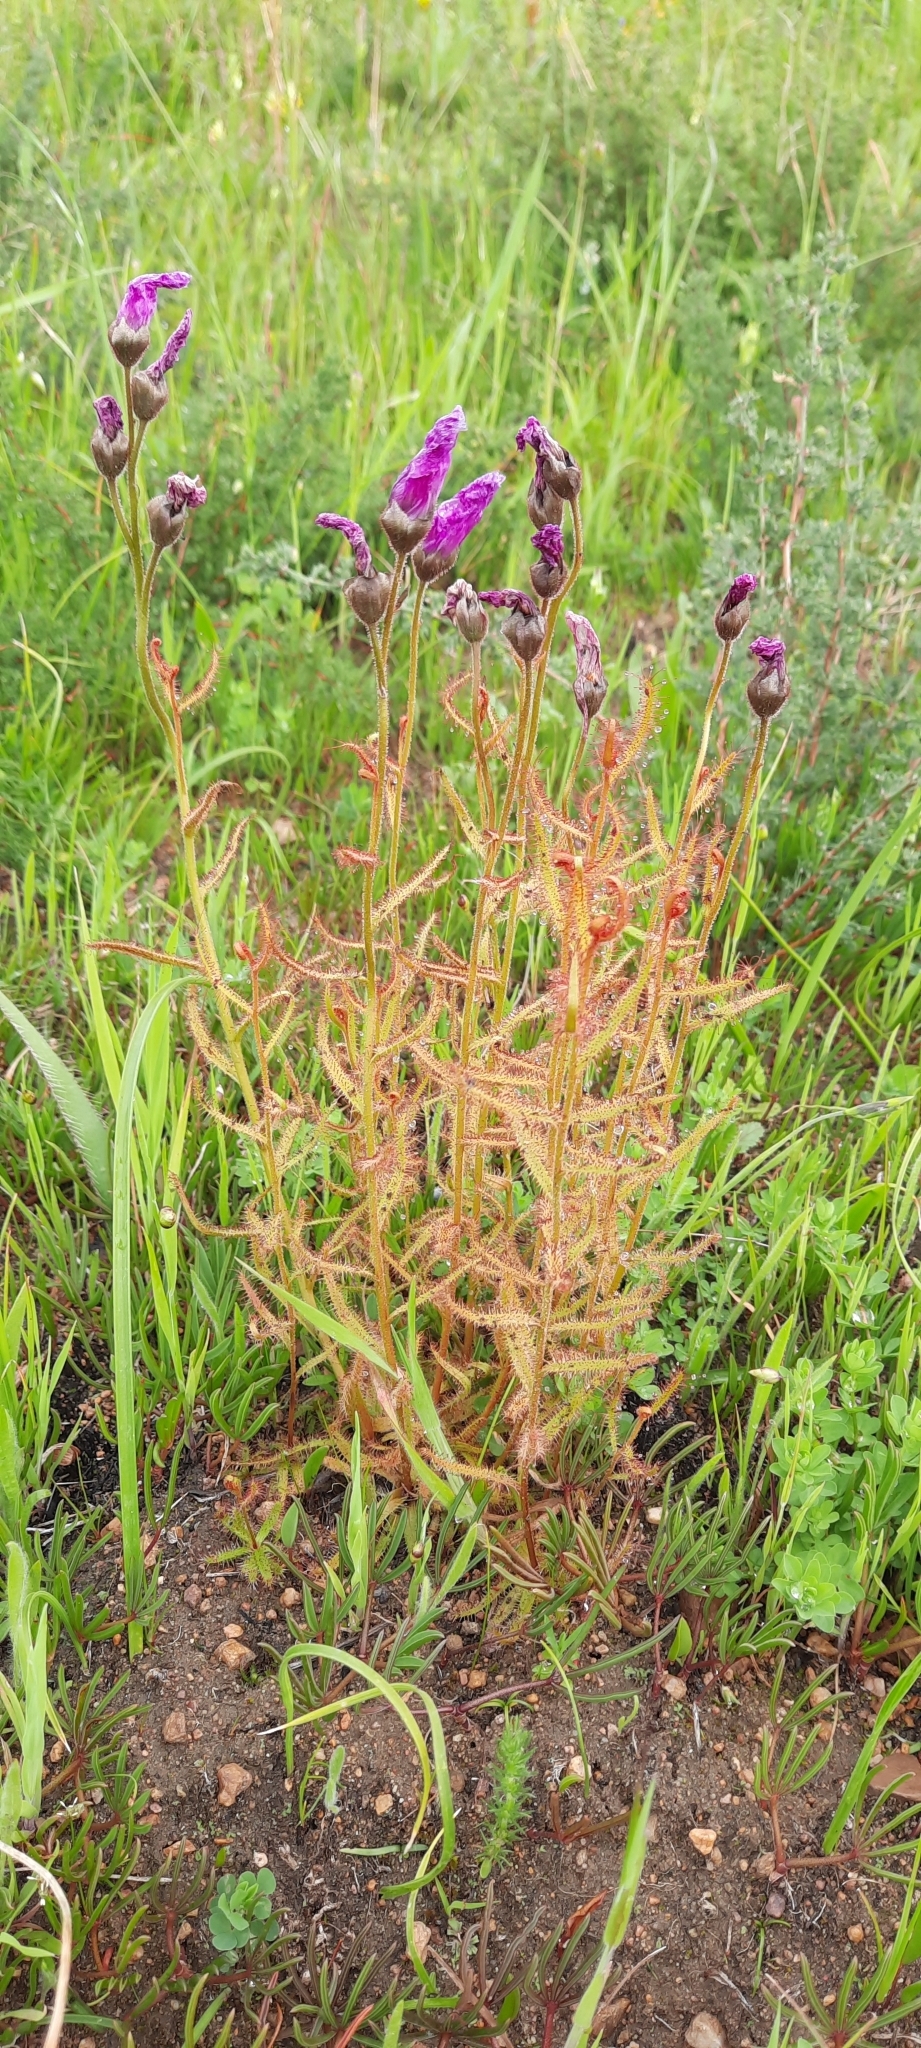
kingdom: Plantae
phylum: Tracheophyta
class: Magnoliopsida
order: Caryophyllales
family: Droseraceae
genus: Drosera
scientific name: Drosera cistiflora
